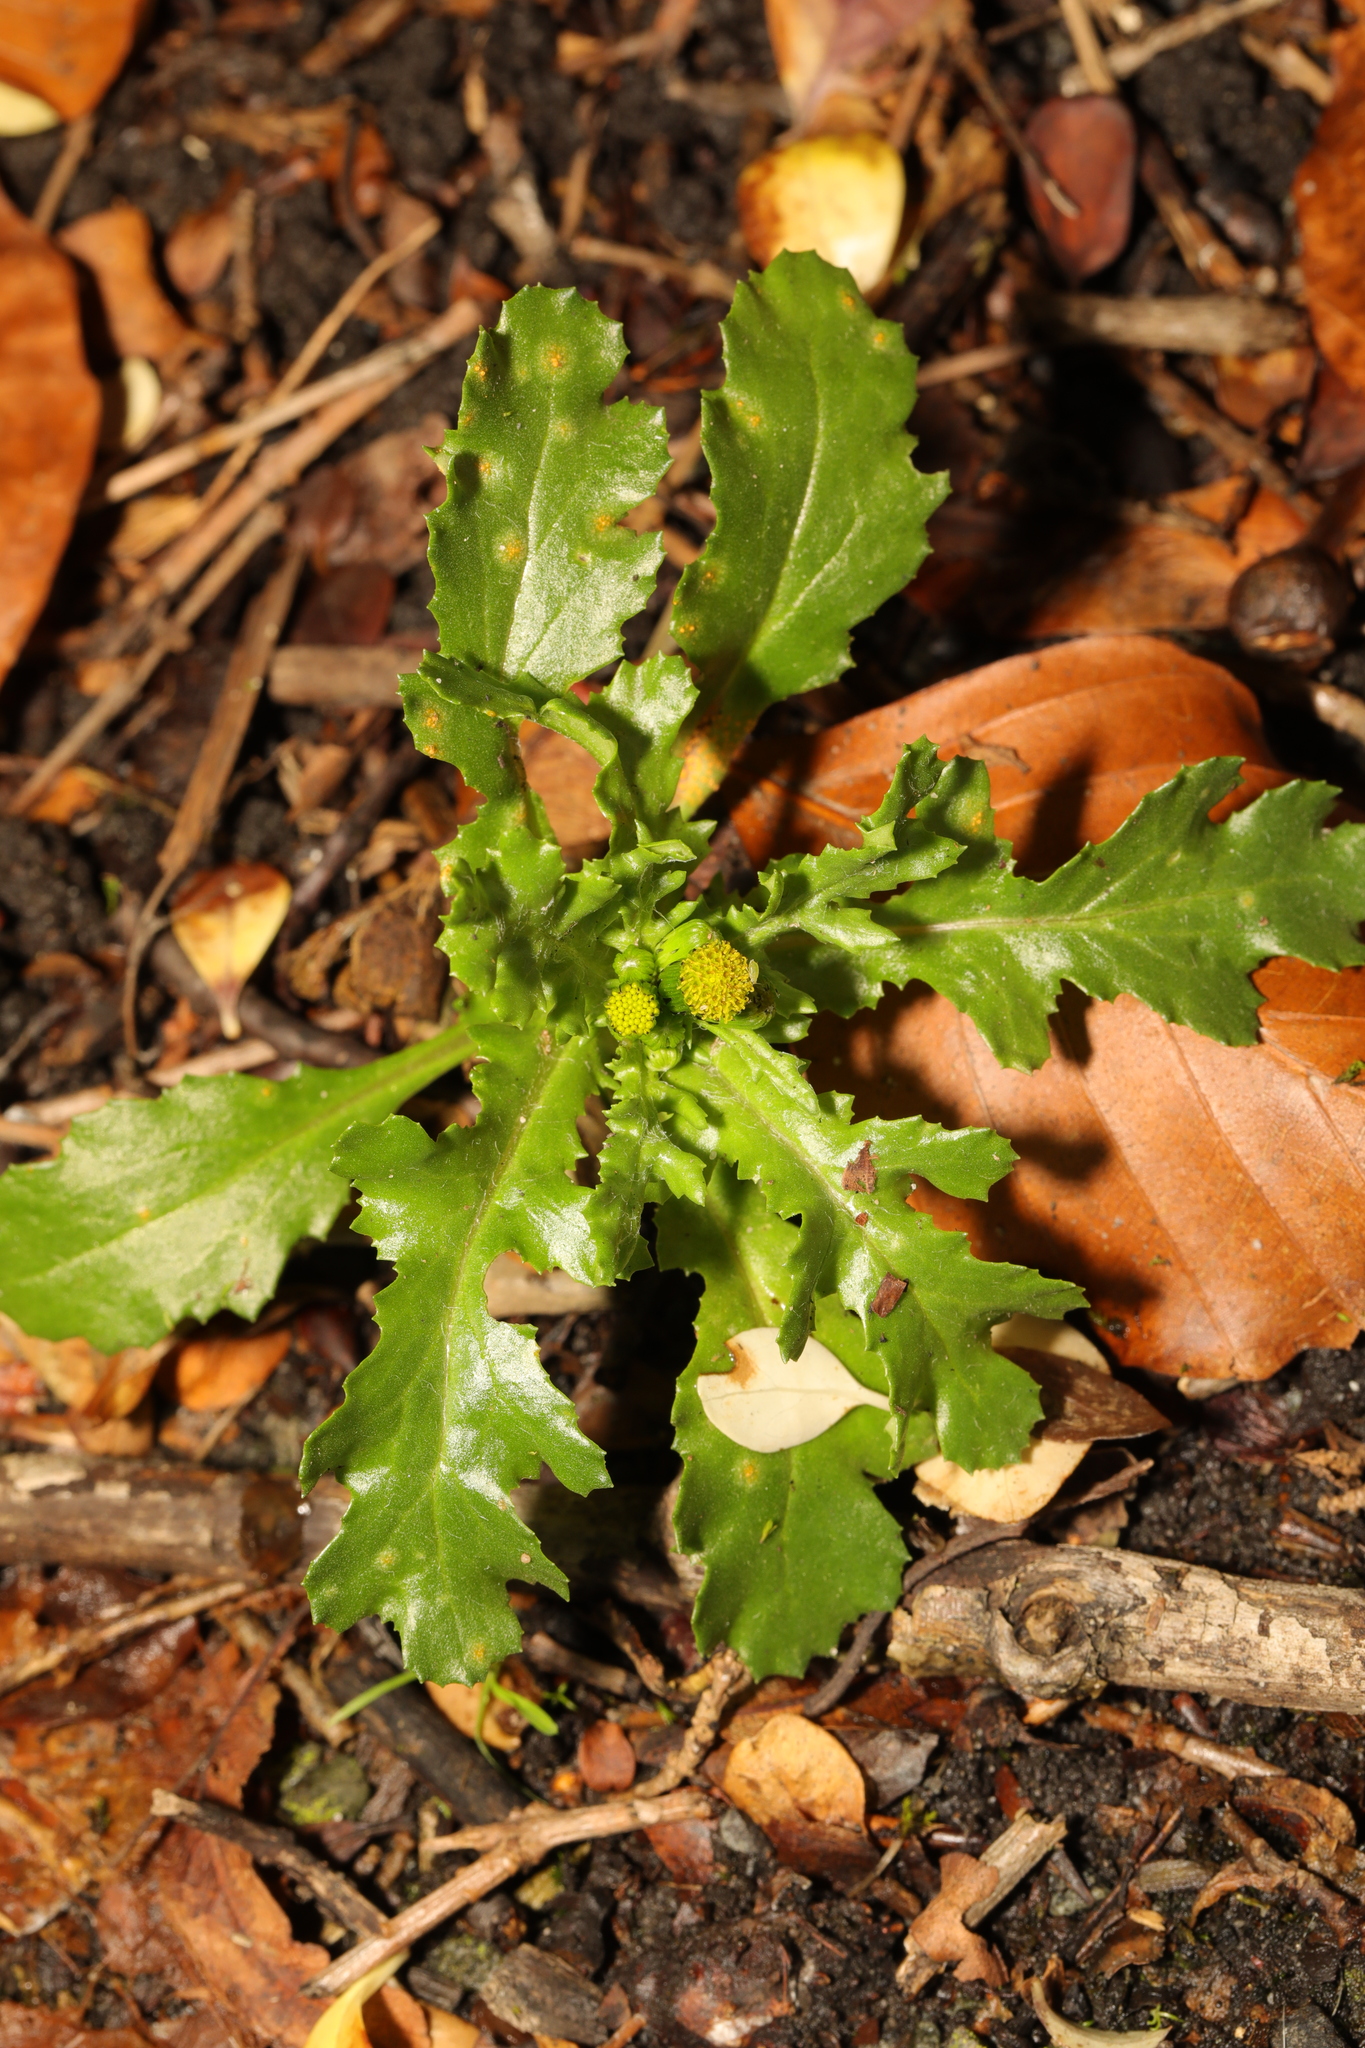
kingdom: Plantae
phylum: Tracheophyta
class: Magnoliopsida
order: Asterales
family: Asteraceae
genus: Senecio
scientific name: Senecio vulgaris
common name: Old-man-in-the-spring
